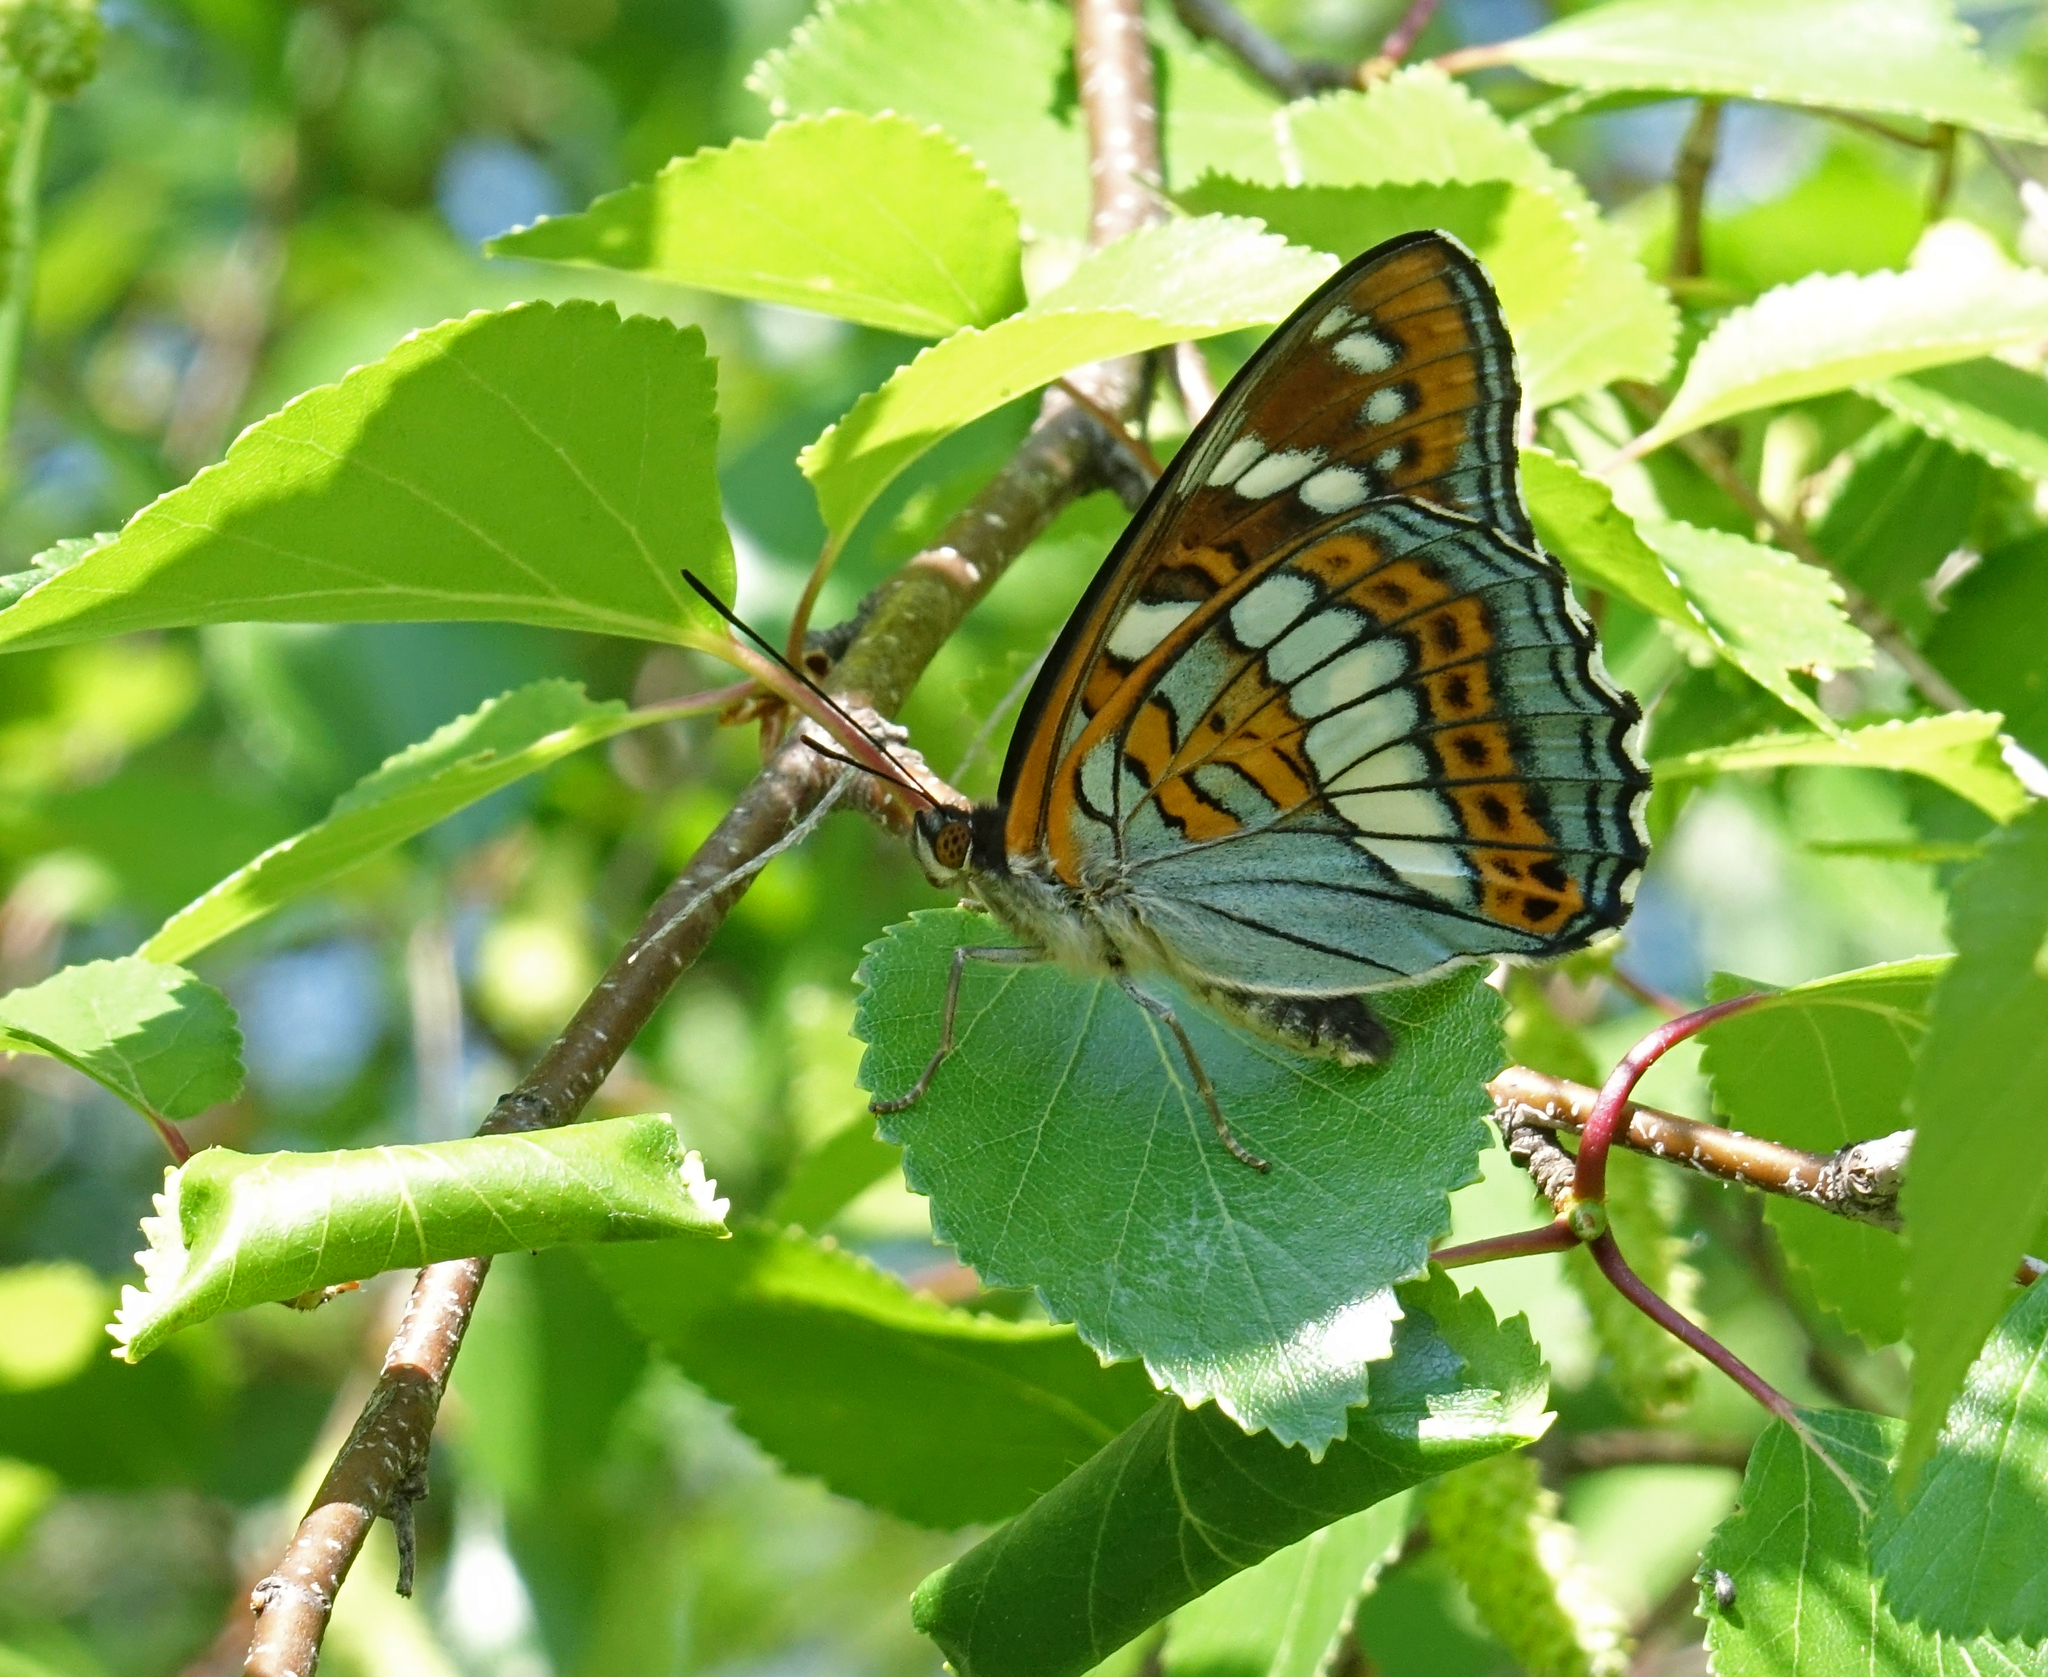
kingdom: Animalia
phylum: Arthropoda
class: Insecta
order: Lepidoptera
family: Nymphalidae
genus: Limenitis
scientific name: Limenitis populi
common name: Poplar admiral
